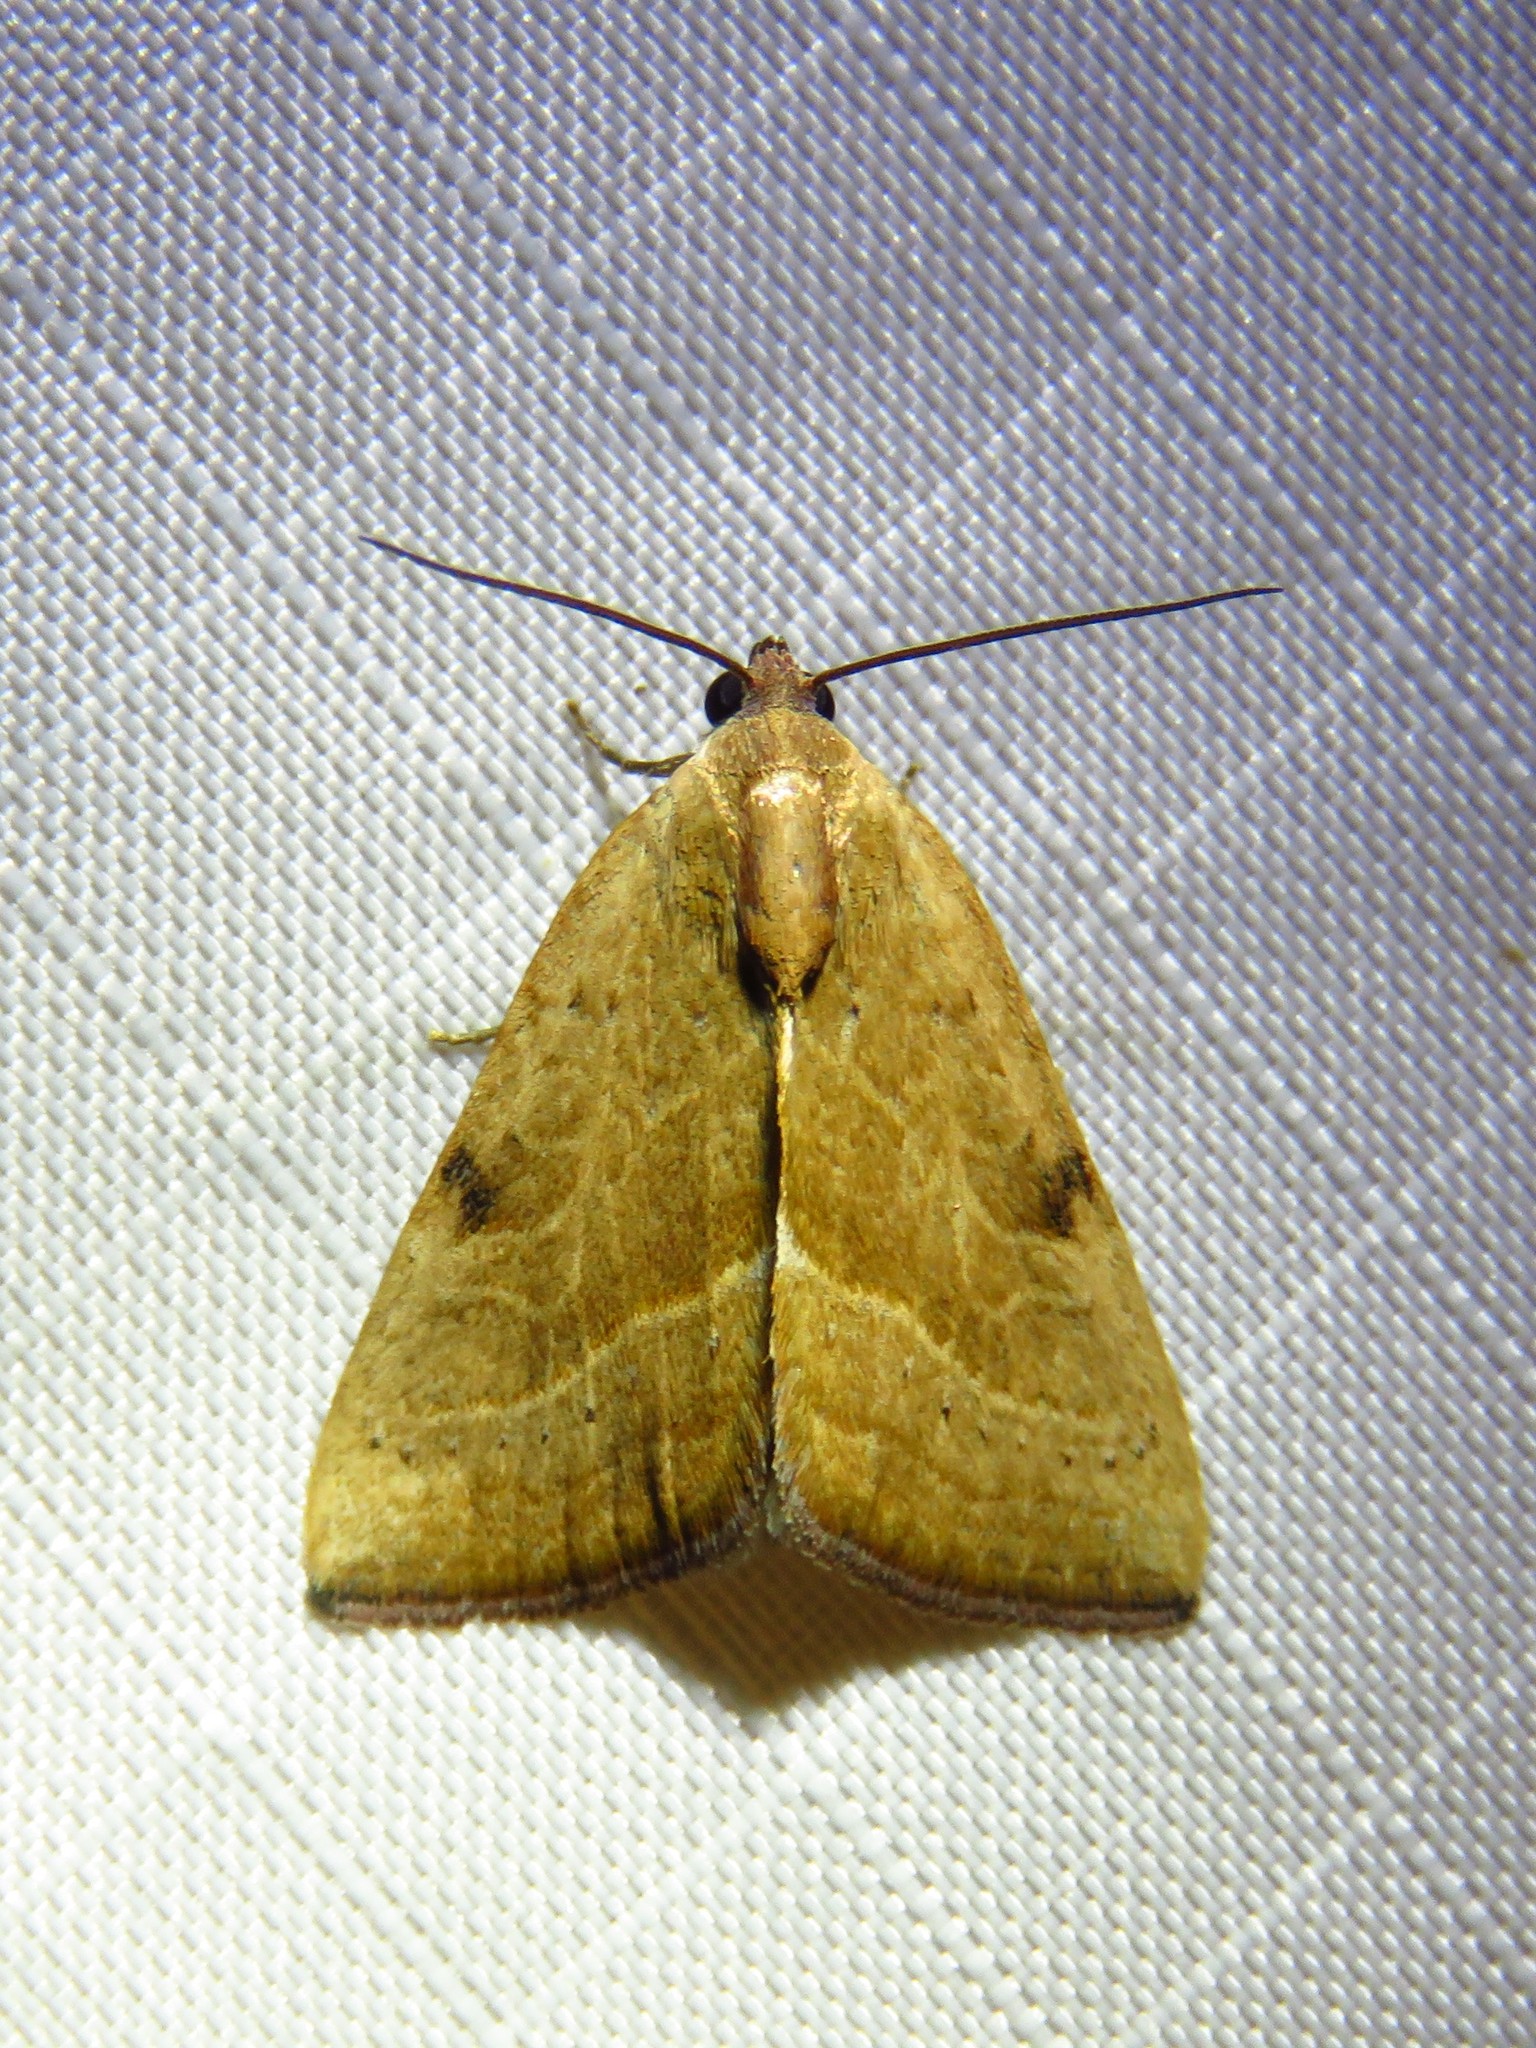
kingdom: Animalia
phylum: Arthropoda
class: Insecta
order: Lepidoptera
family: Noctuidae
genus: Galgula
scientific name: Galgula partita
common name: Wedgeling
